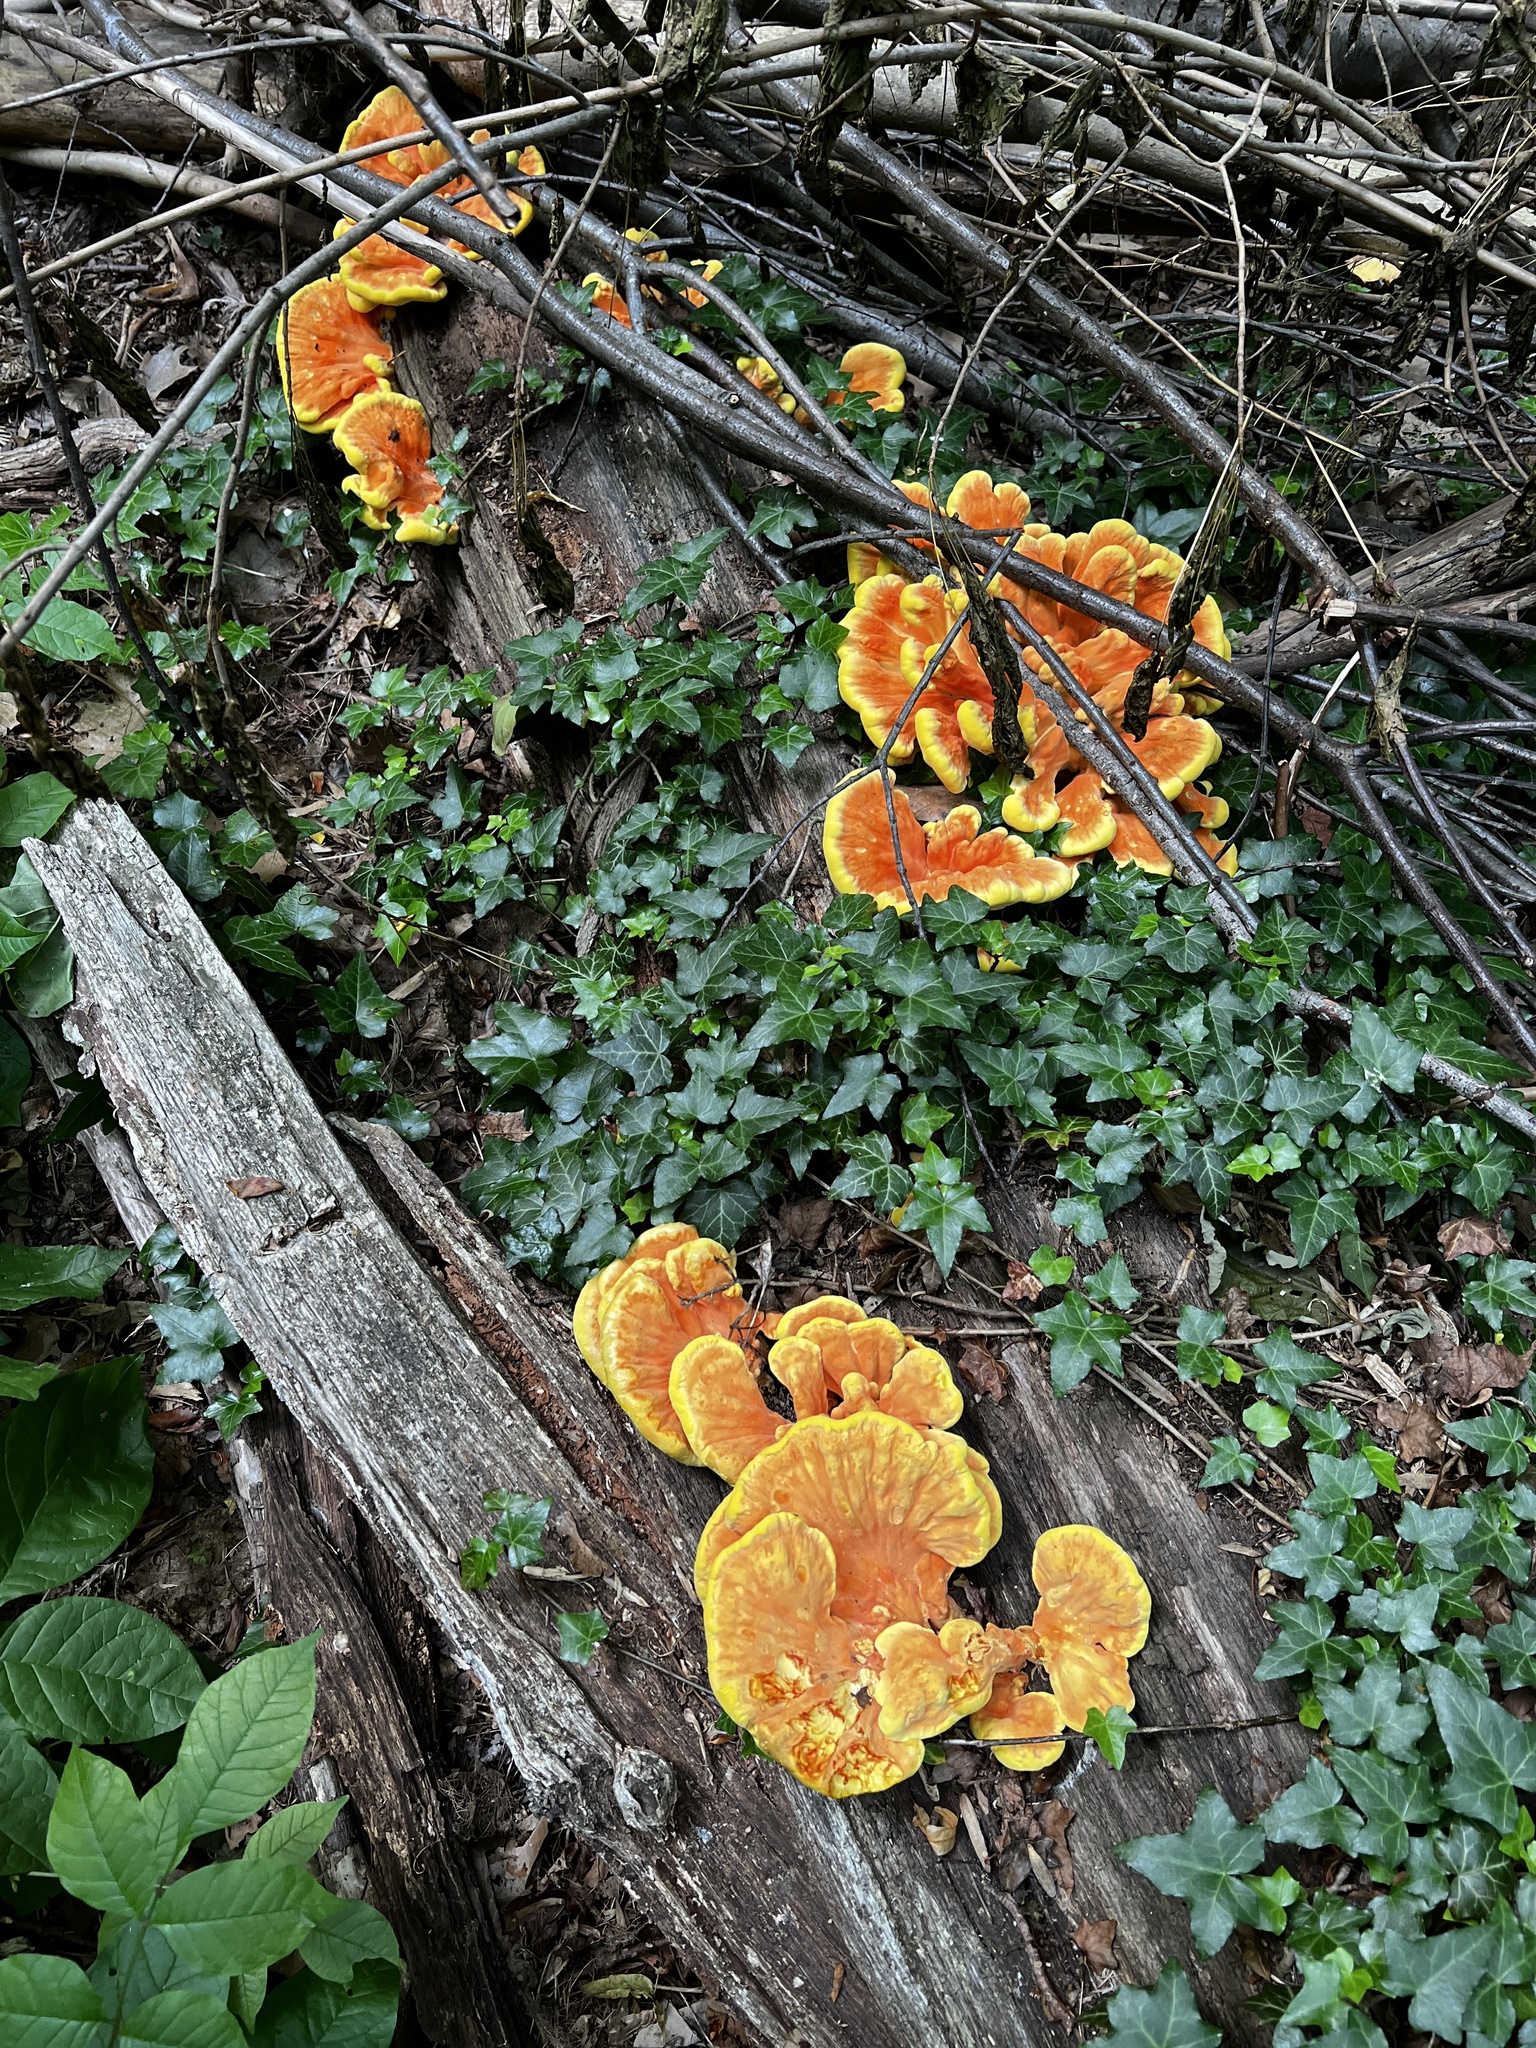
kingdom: Fungi
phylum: Basidiomycota
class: Agaricomycetes
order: Polyporales
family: Laetiporaceae
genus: Laetiporus
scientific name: Laetiporus sulphureus
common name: Chicken of the woods
